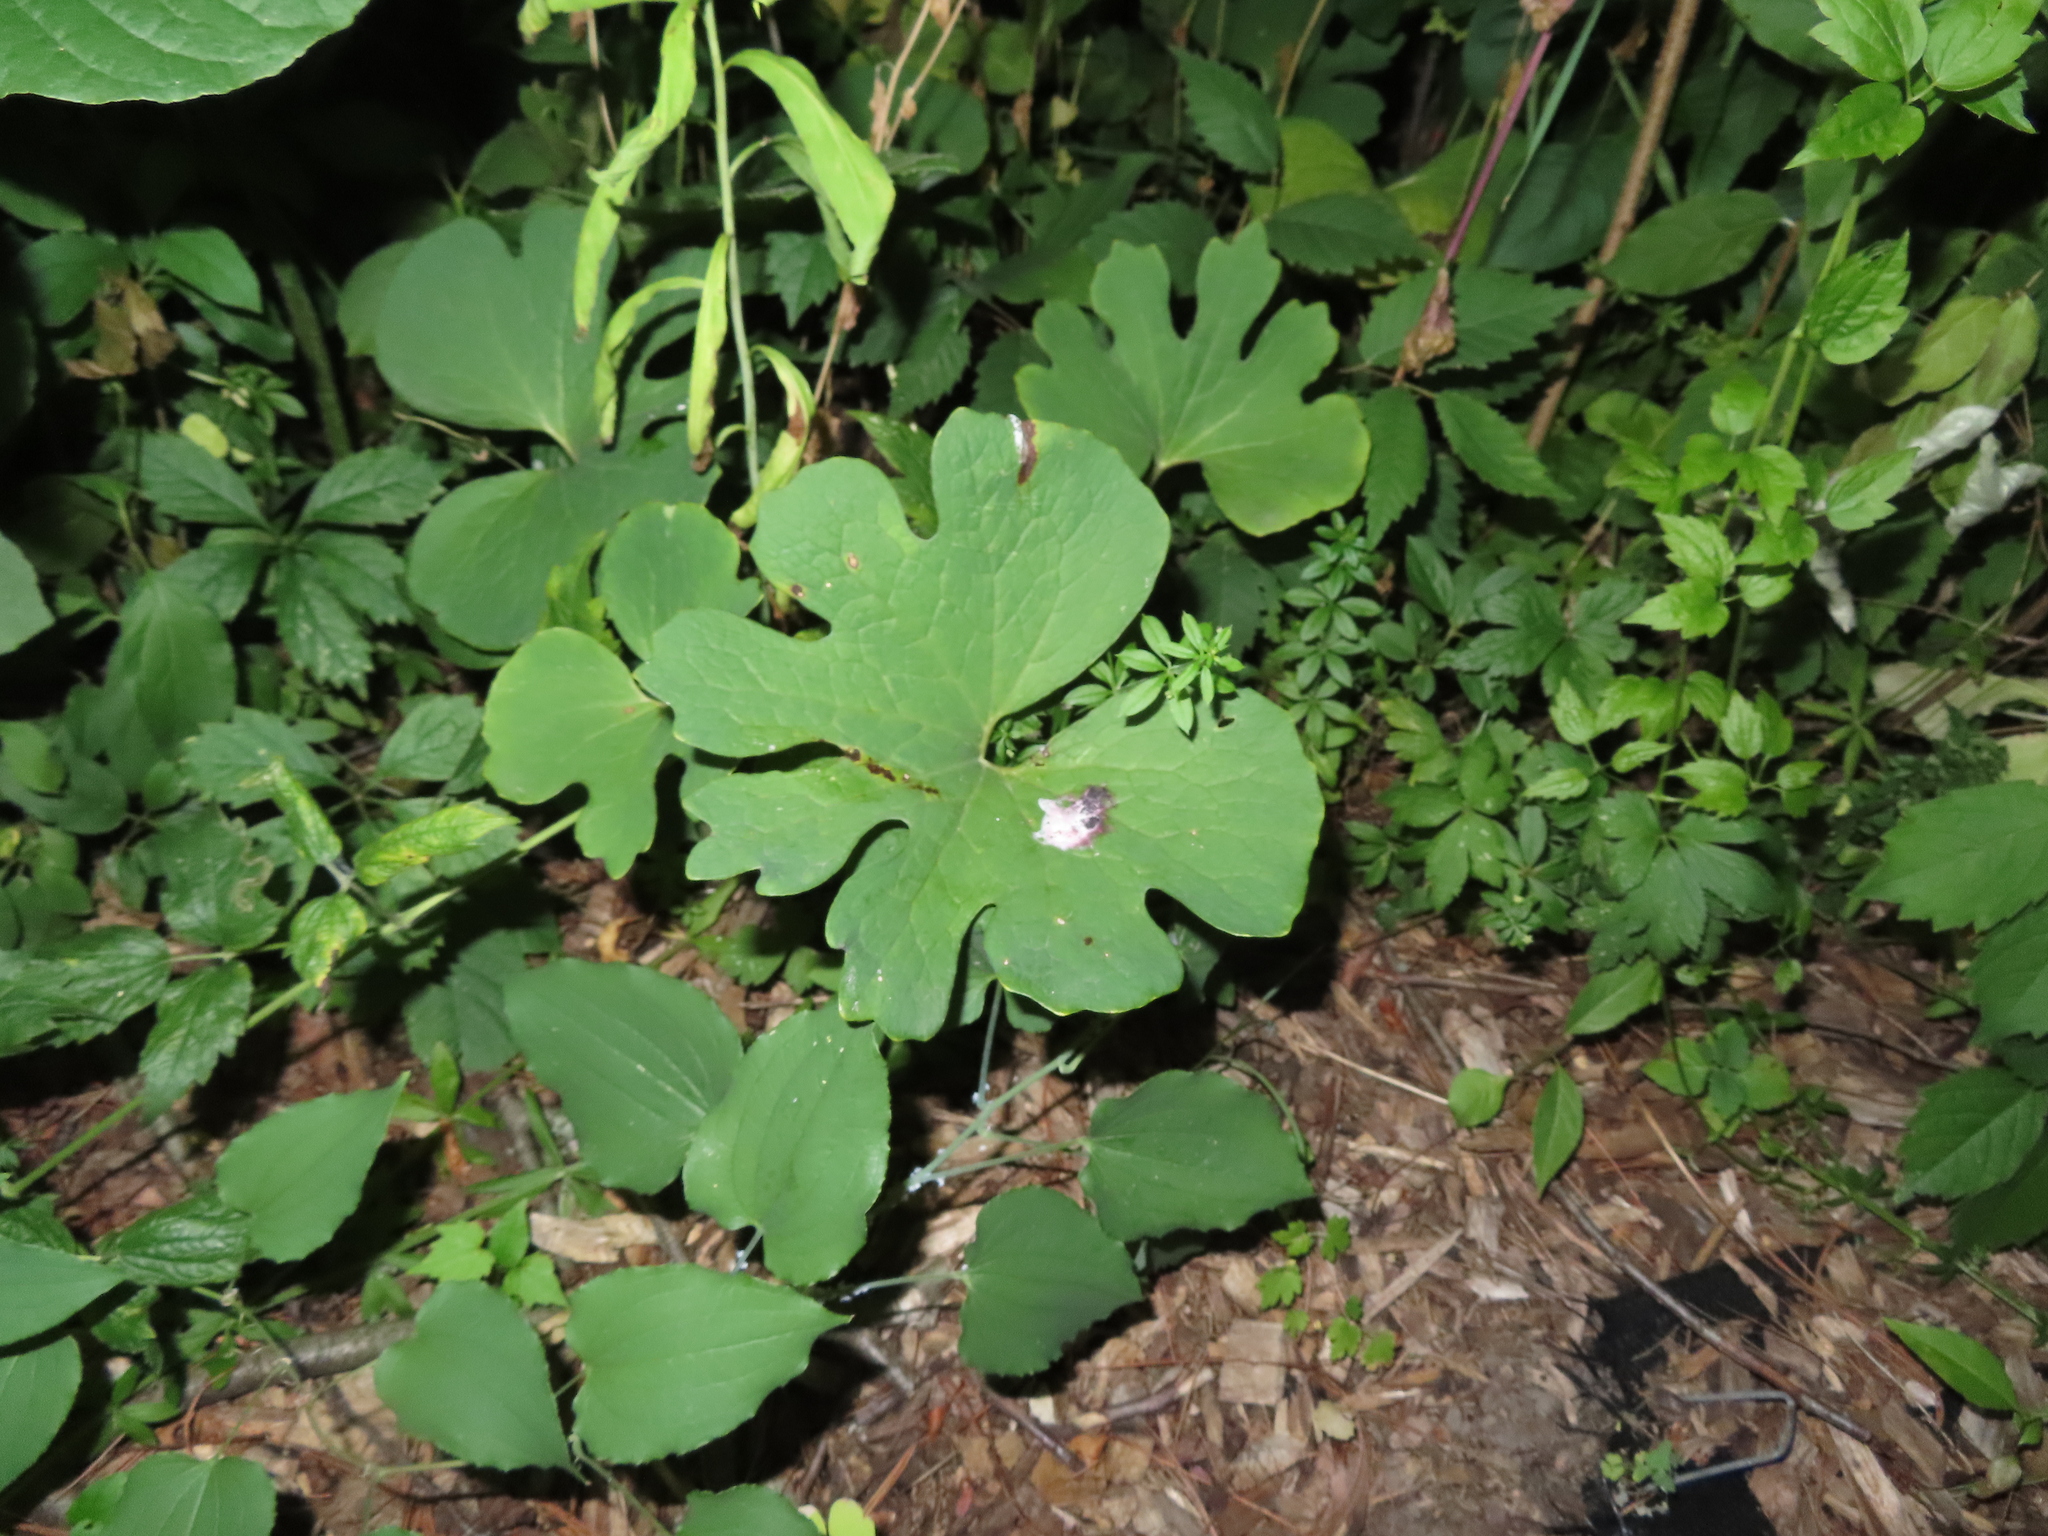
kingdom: Plantae
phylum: Tracheophyta
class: Magnoliopsida
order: Ranunculales
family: Papaveraceae
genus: Sanguinaria
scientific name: Sanguinaria canadensis
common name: Bloodroot
